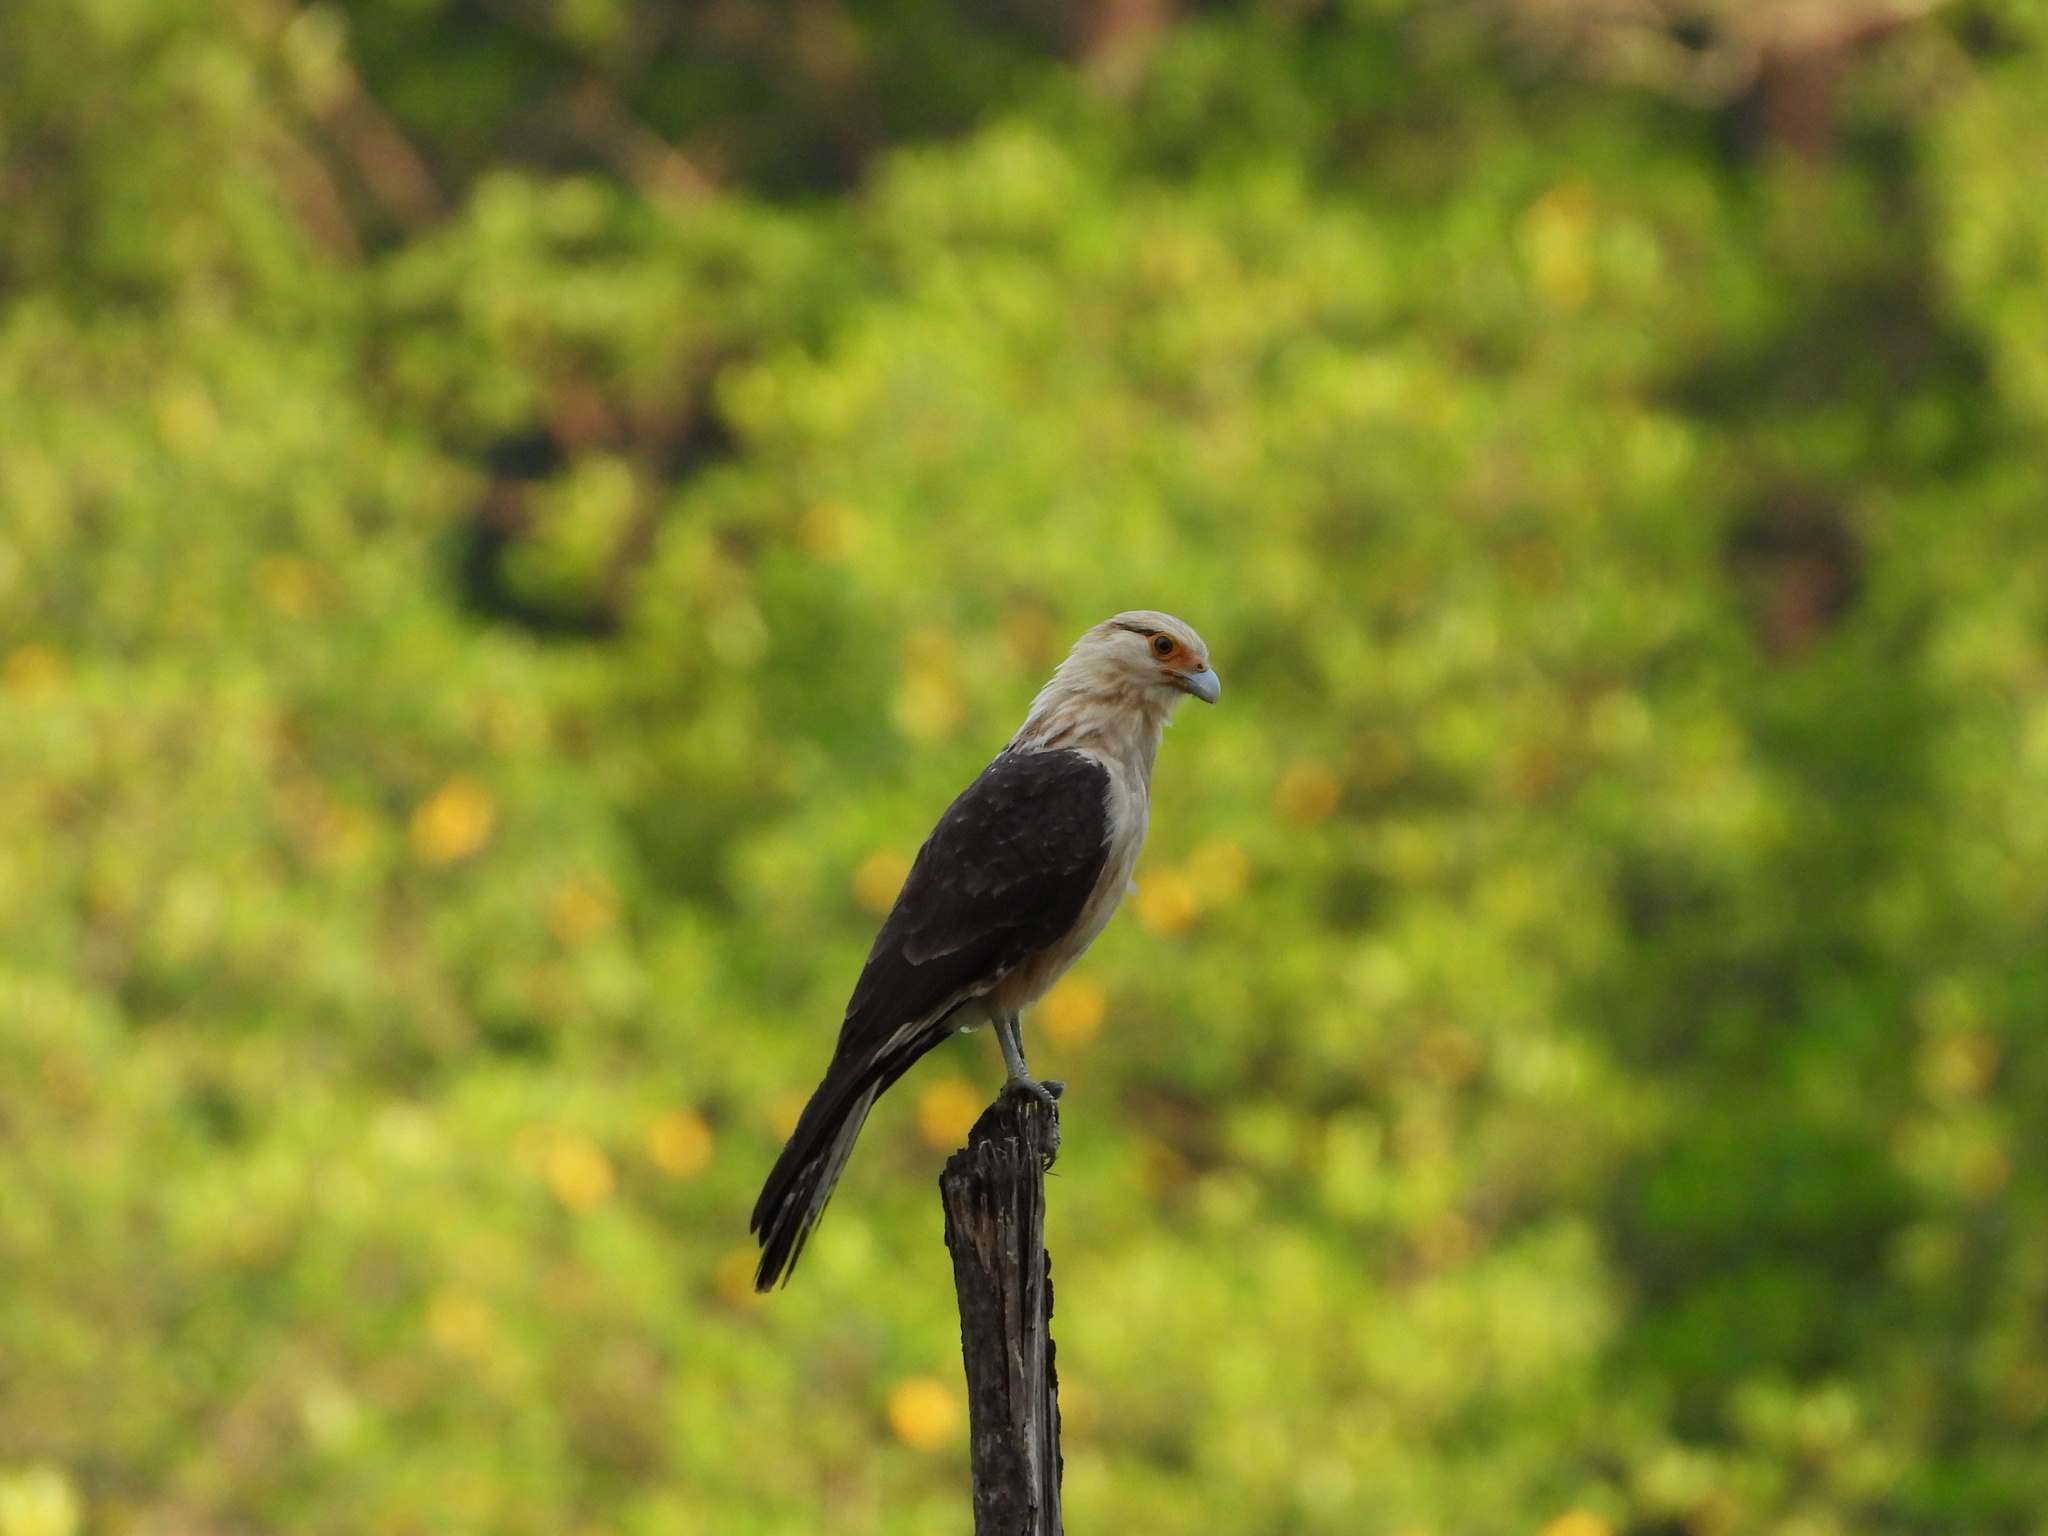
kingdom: Animalia
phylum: Chordata
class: Aves
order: Falconiformes
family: Falconidae
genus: Daptrius
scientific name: Daptrius
